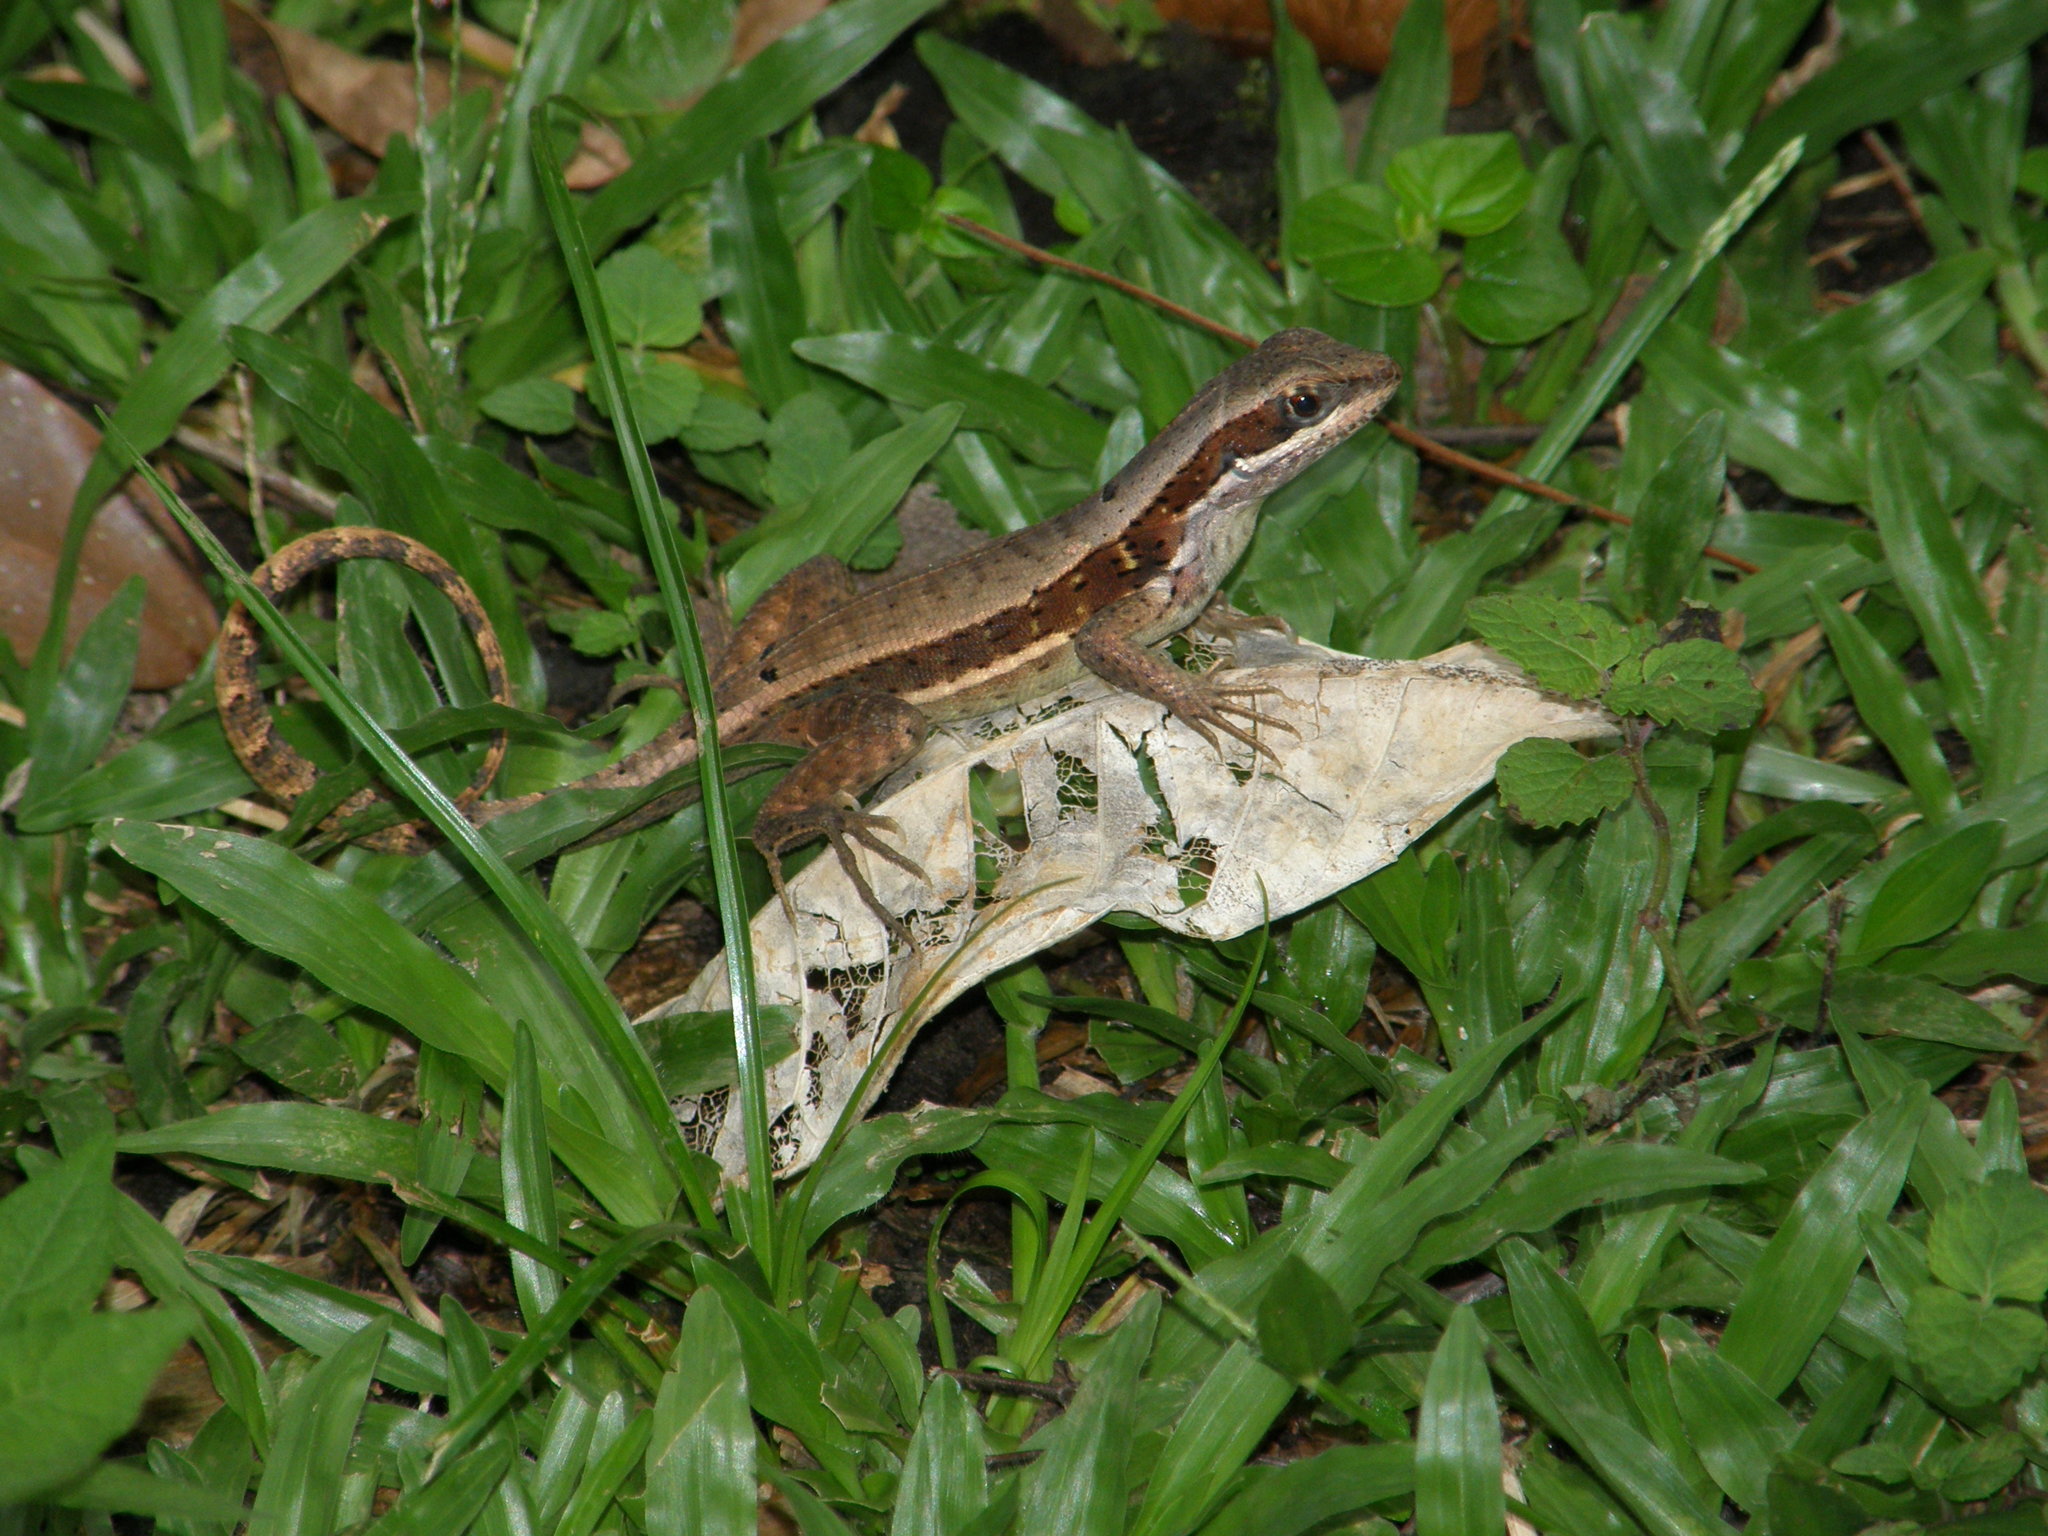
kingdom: Animalia
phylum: Chordata
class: Squamata
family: Leiocephalidae
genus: Leiocephalus
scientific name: Leiocephalus macropus
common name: Monte verde curlytail lizard
